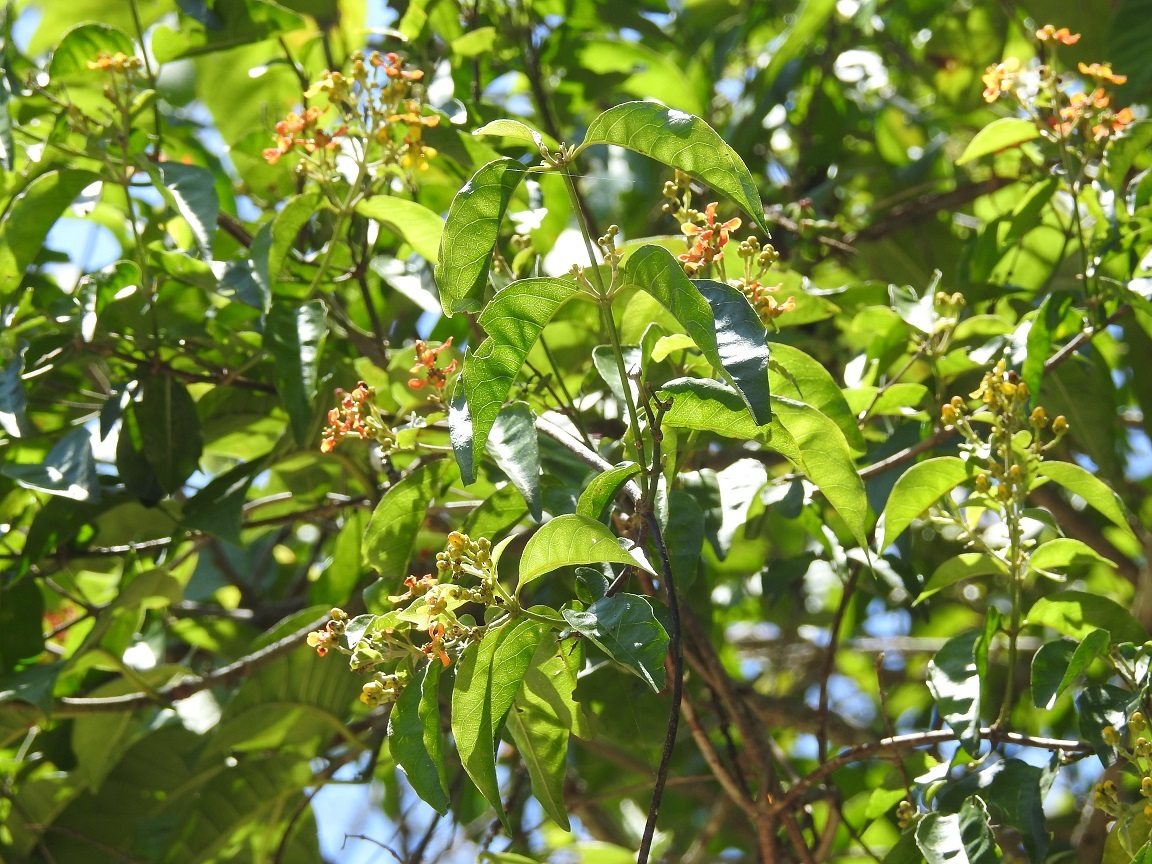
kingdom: Plantae
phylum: Tracheophyta
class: Magnoliopsida
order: Malpighiales
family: Malpighiaceae
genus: Tetrapterys
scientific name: Tetrapterys schiedeana
